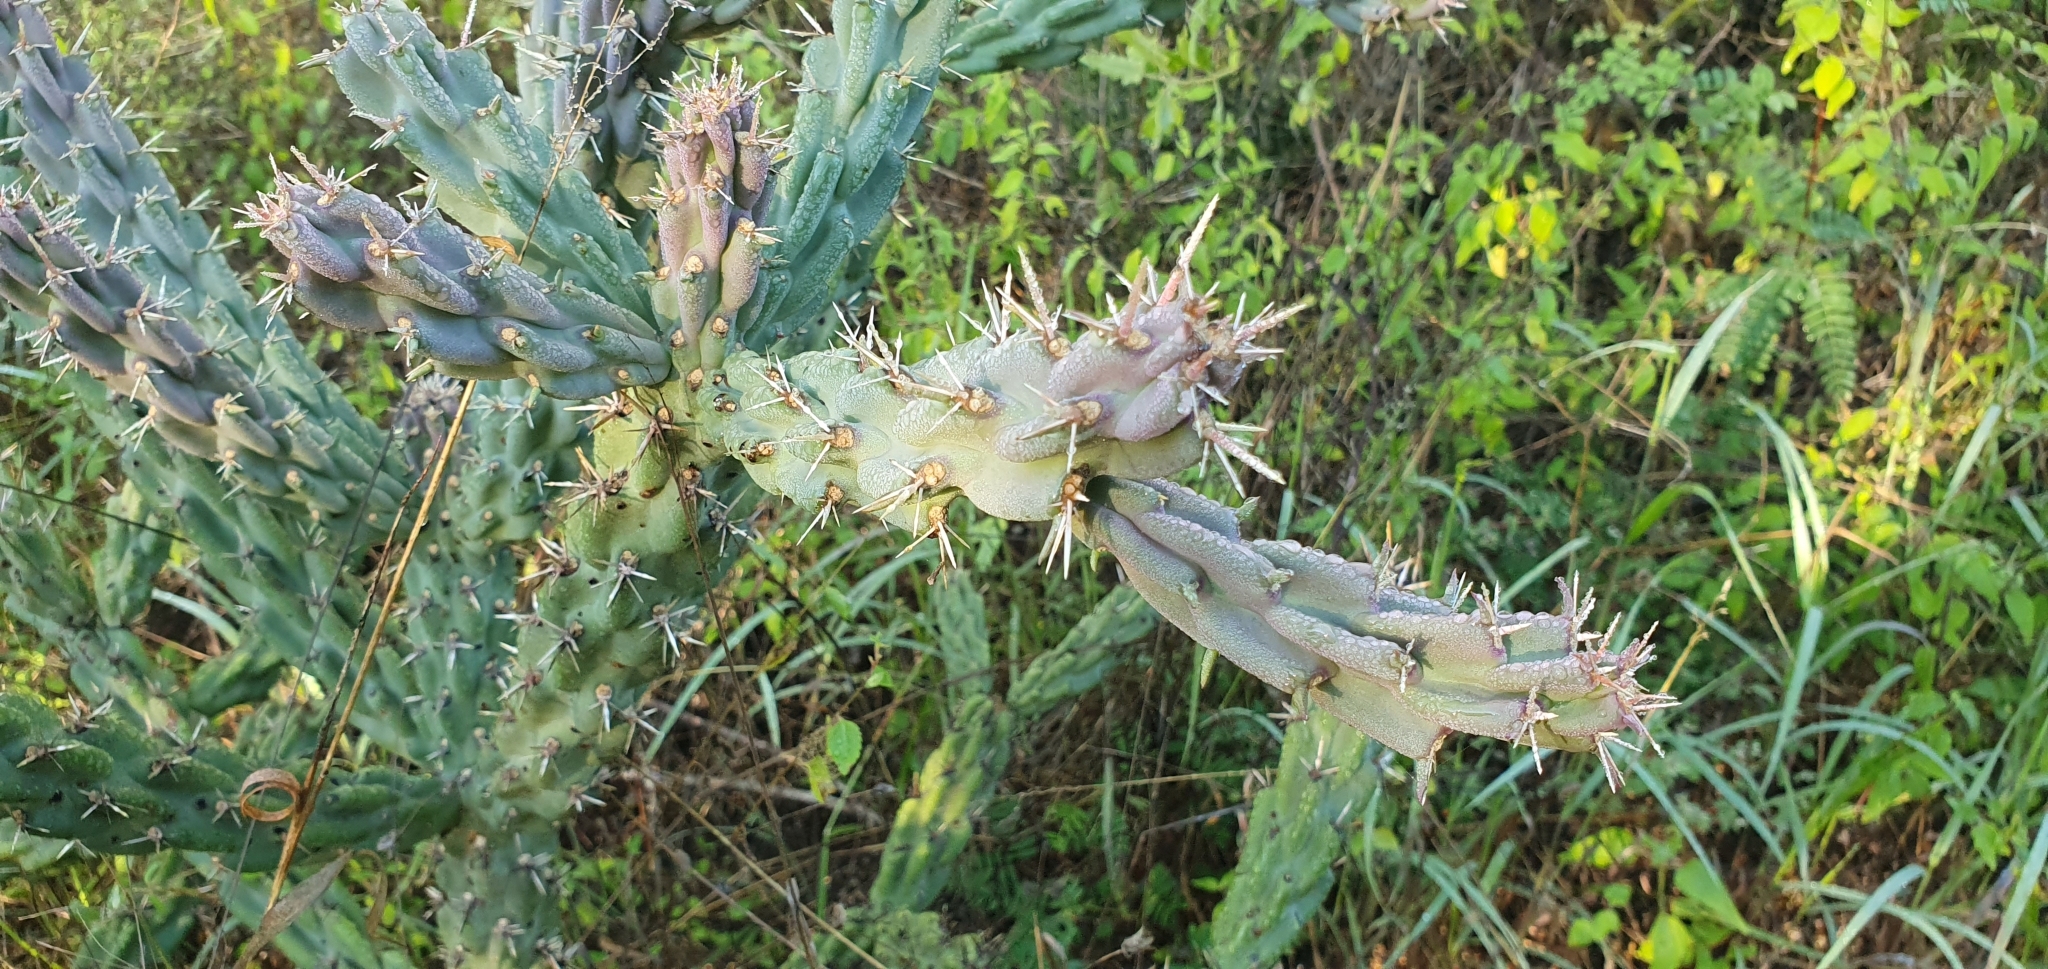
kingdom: Plantae
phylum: Tracheophyta
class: Magnoliopsida
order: Caryophyllales
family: Cactaceae
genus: Cylindropuntia
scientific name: Cylindropuntia cholla
